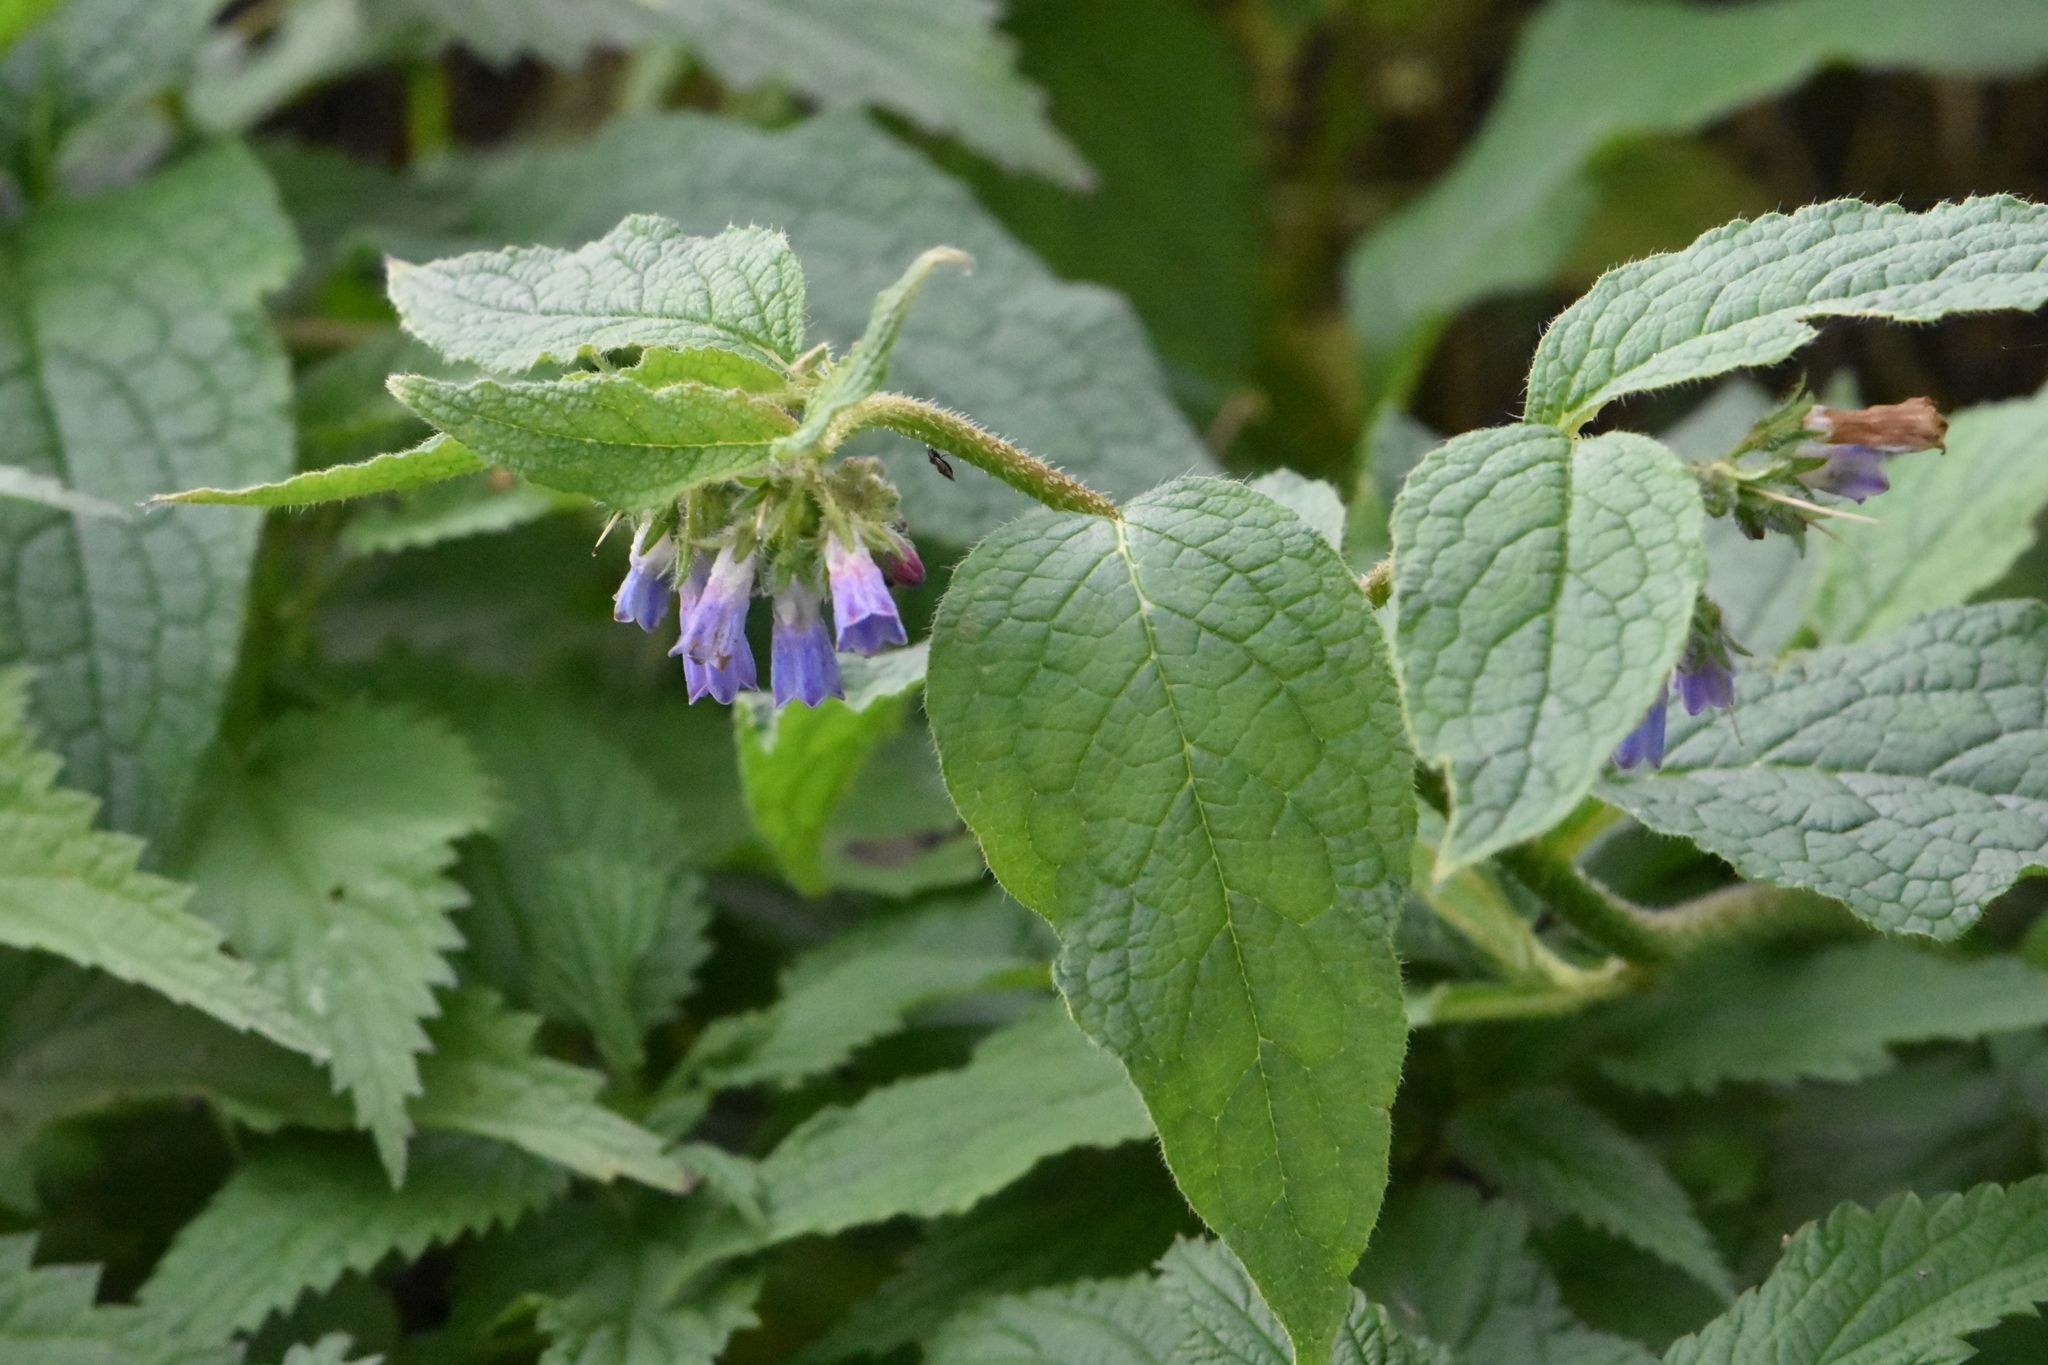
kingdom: Plantae
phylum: Tracheophyta
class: Magnoliopsida
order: Boraginales
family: Boraginaceae
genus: Symphytum
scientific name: Symphytum asperum
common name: Prickly comfrey
